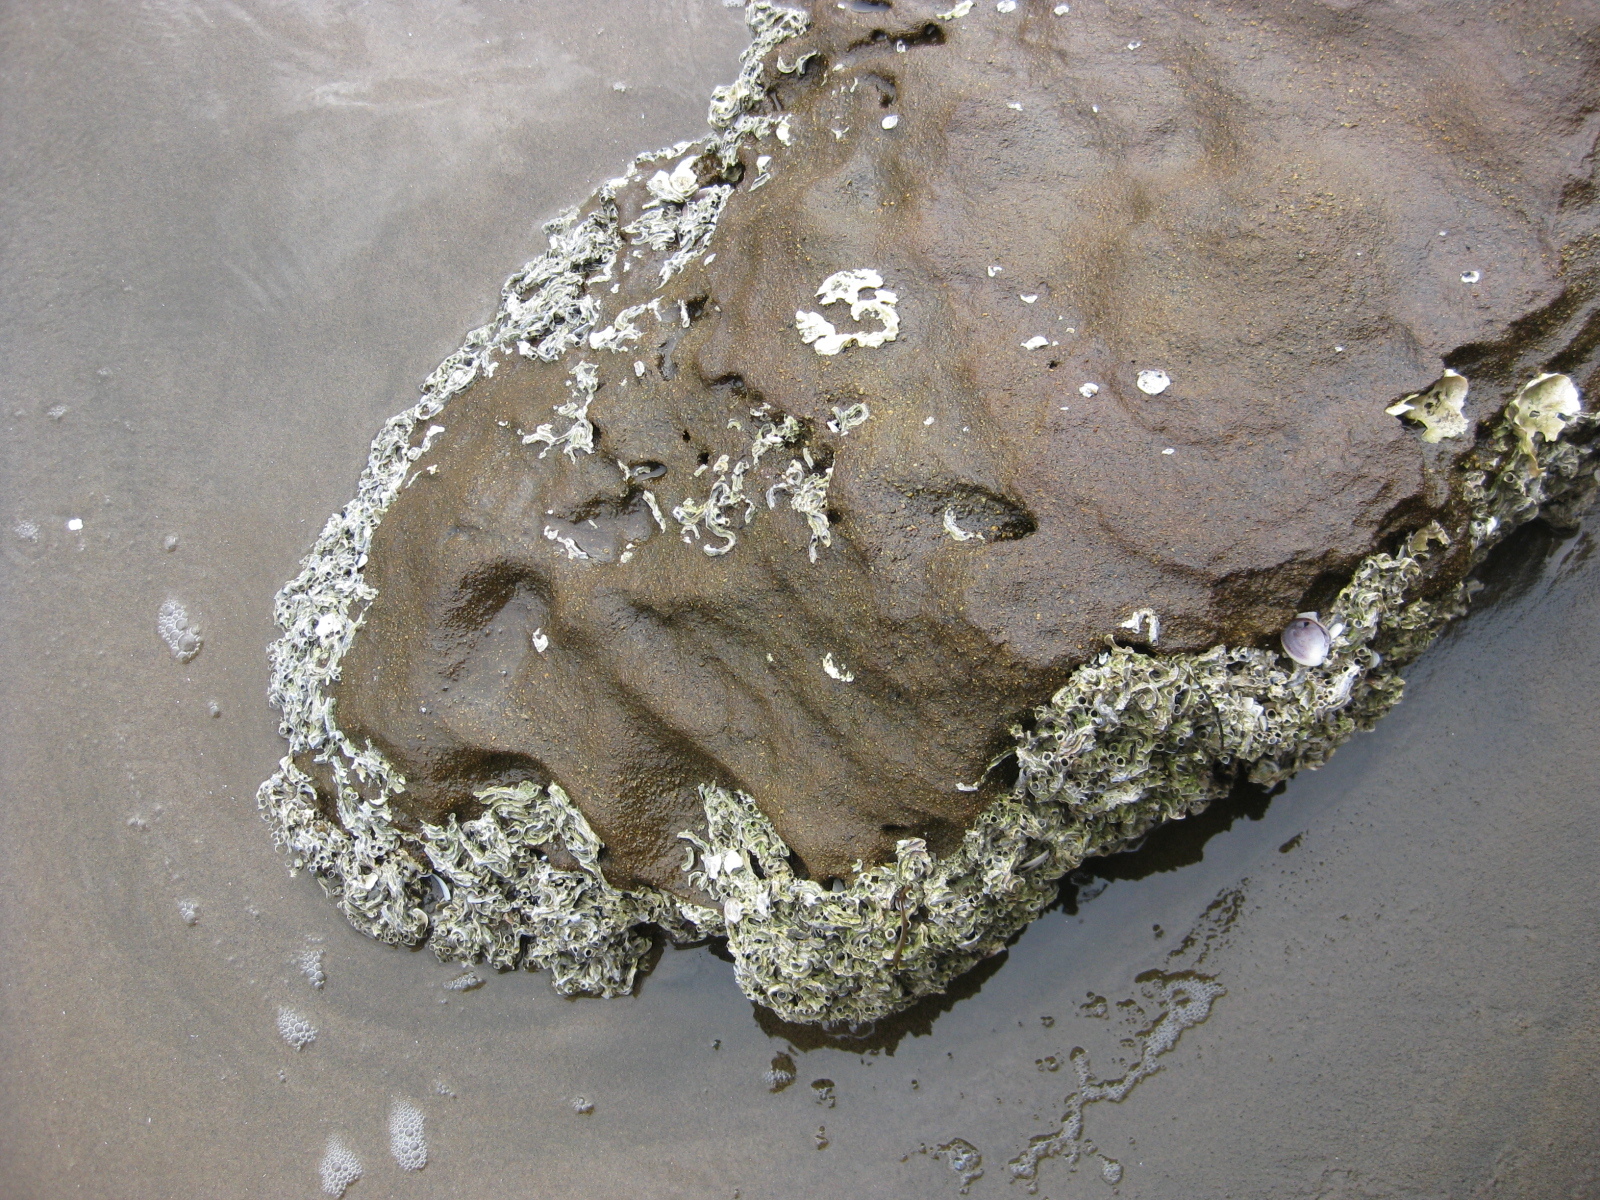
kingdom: Animalia
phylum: Annelida
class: Polychaeta
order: Sabellida
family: Serpulidae
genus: Spirobranchus
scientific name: Spirobranchus cariniferus
